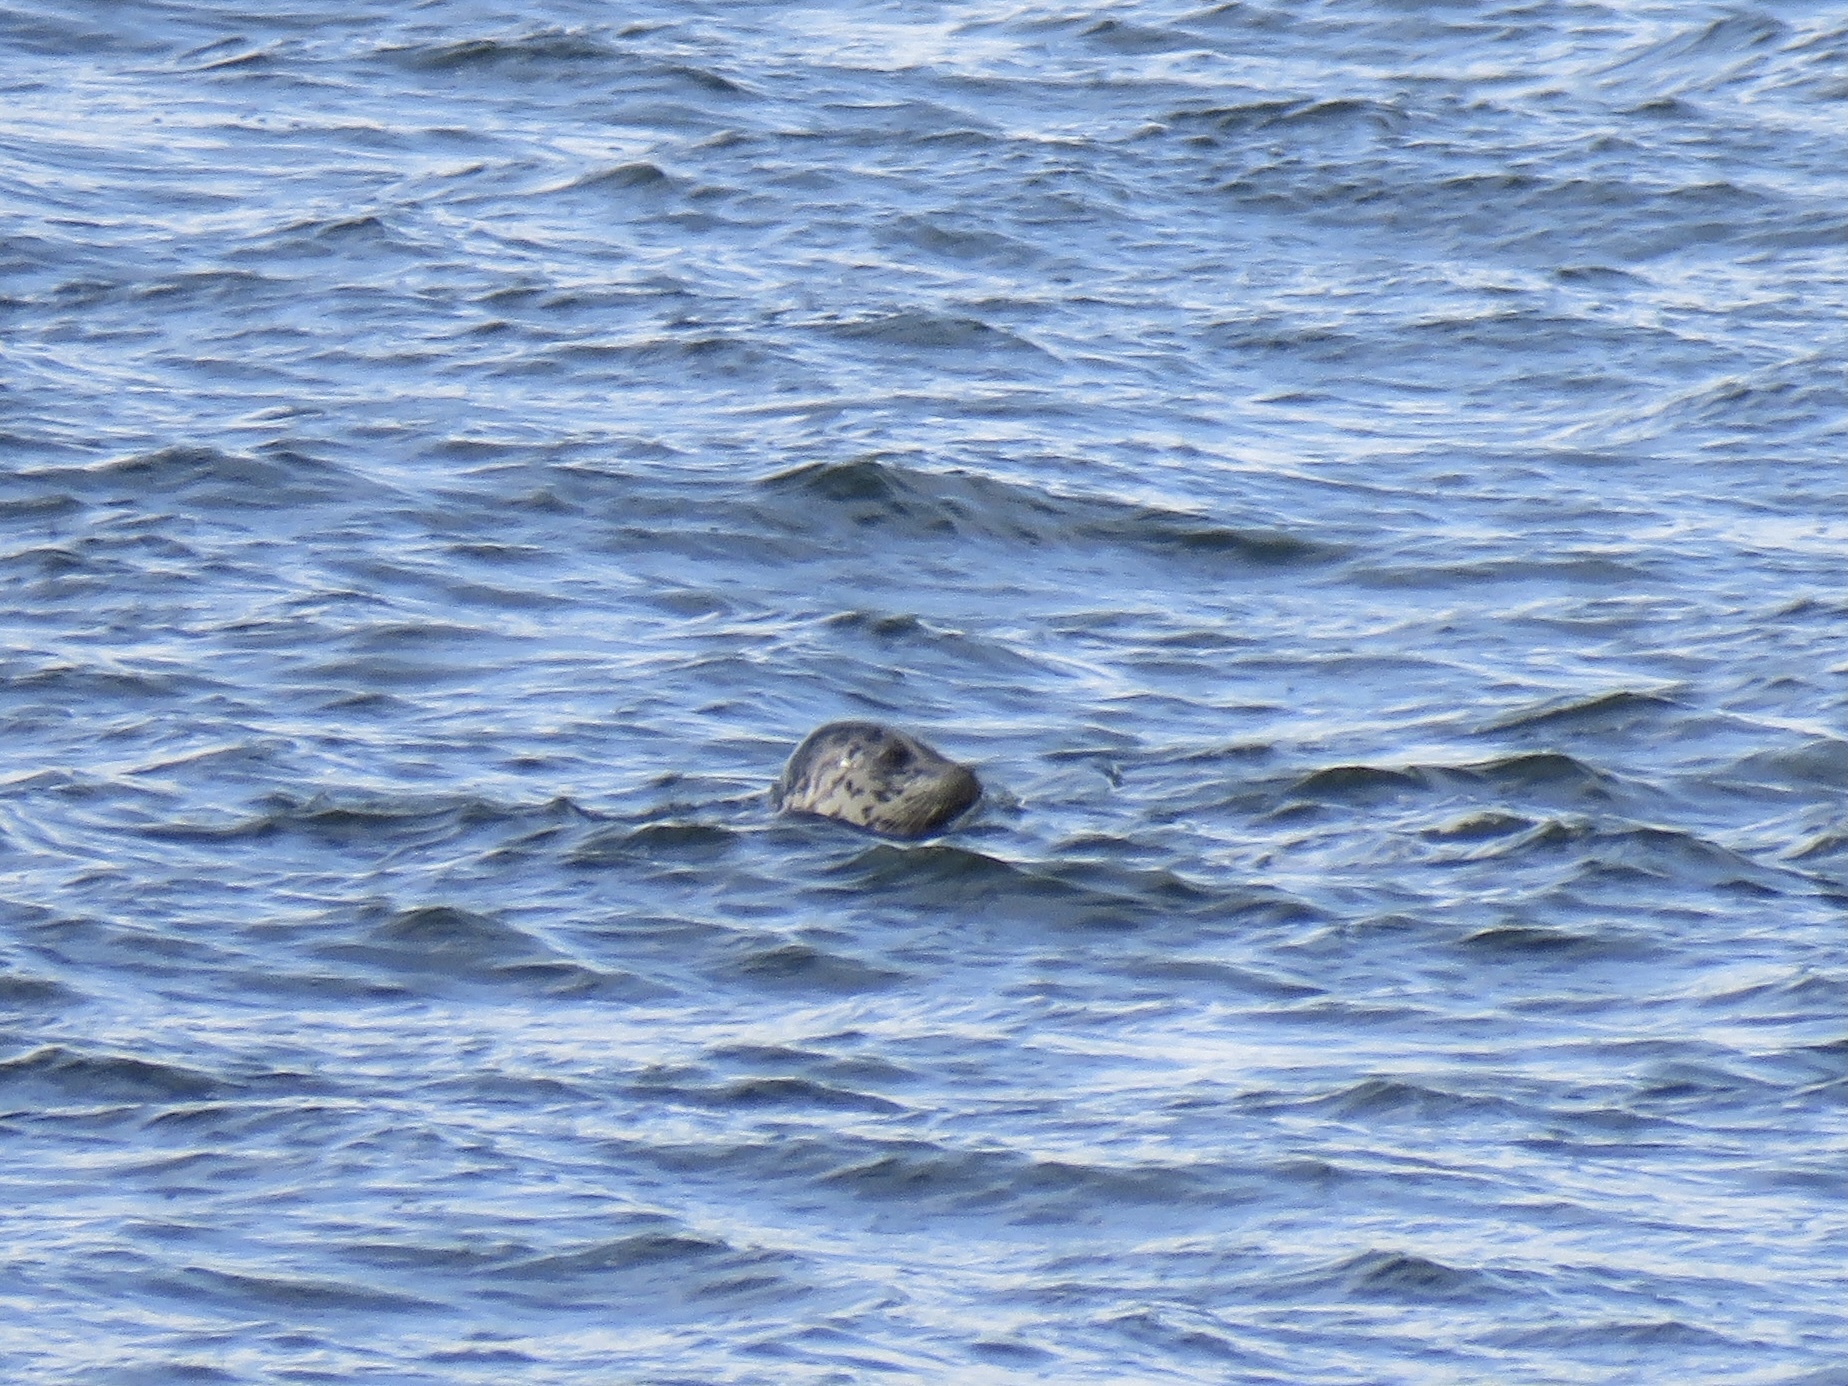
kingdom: Animalia
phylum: Chordata
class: Mammalia
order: Carnivora
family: Phocidae
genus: Phoca
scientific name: Phoca vitulina
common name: Harbor seal
